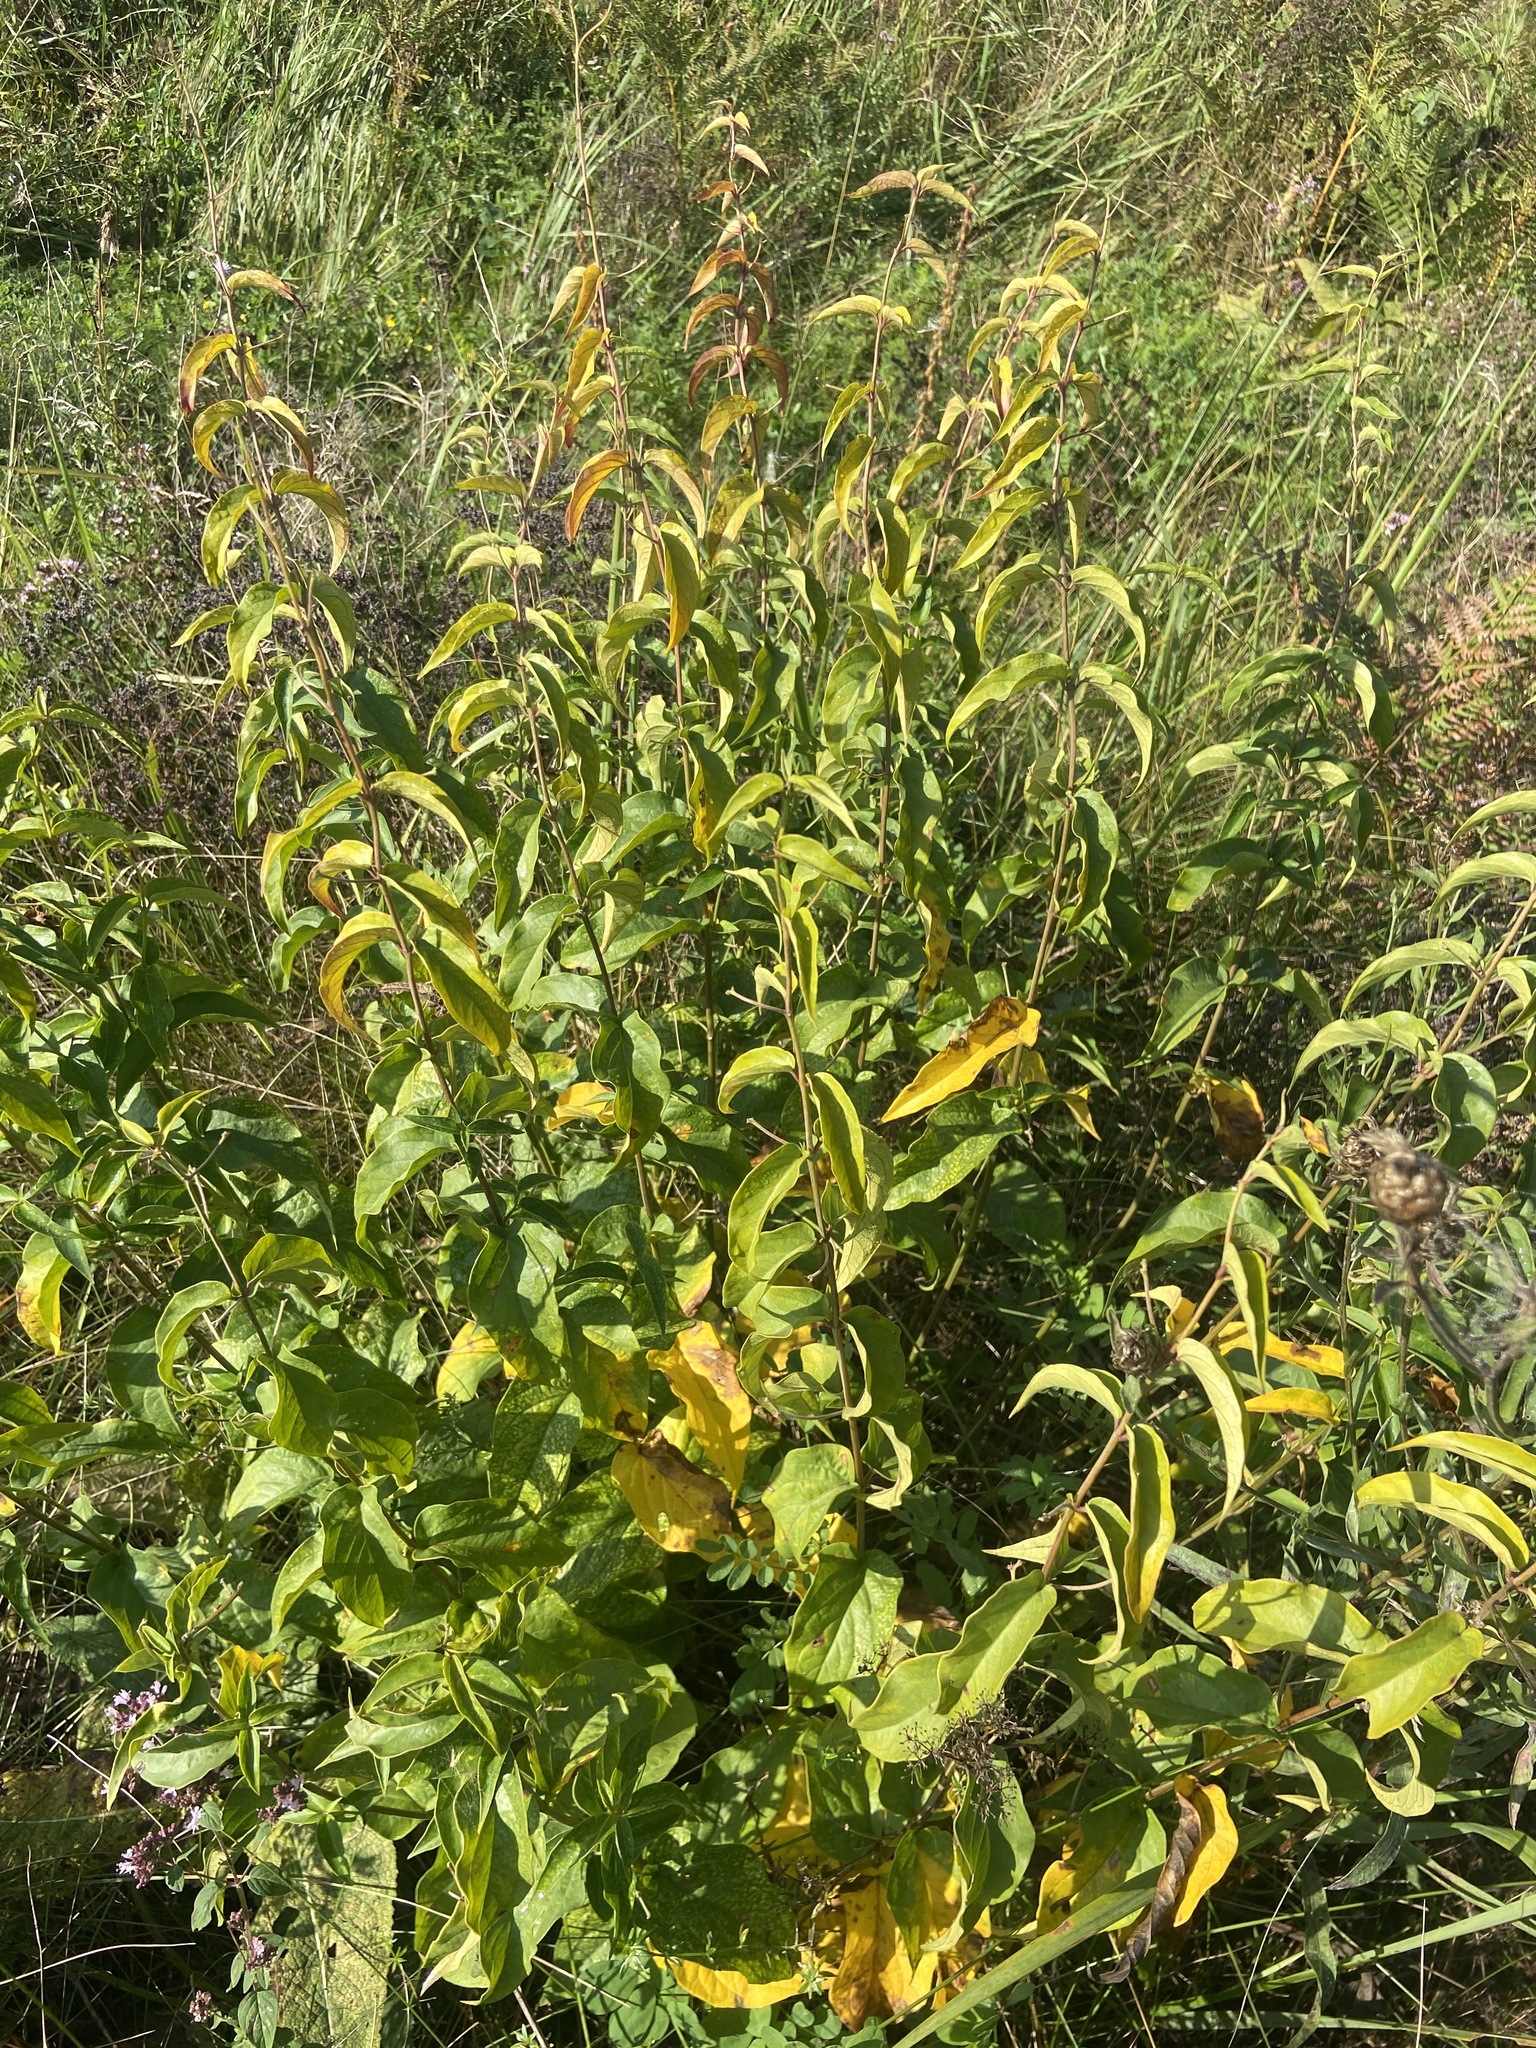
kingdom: Plantae
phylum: Tracheophyta
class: Magnoliopsida
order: Gentianales
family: Apocynaceae
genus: Vincetoxicum
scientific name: Vincetoxicum hirundinaria
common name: White swallowwort
